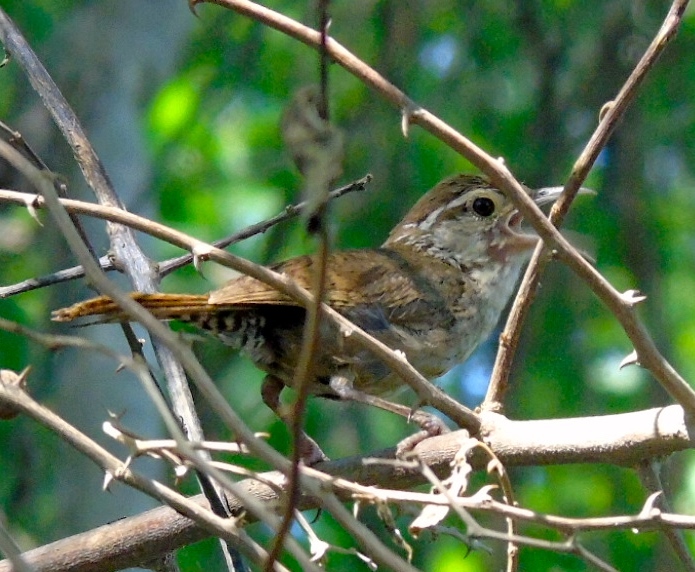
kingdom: Animalia
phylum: Chordata
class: Aves
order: Passeriformes
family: Troglodytidae
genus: Thryophilus
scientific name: Thryophilus sinaloa
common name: Sinaloa wren
